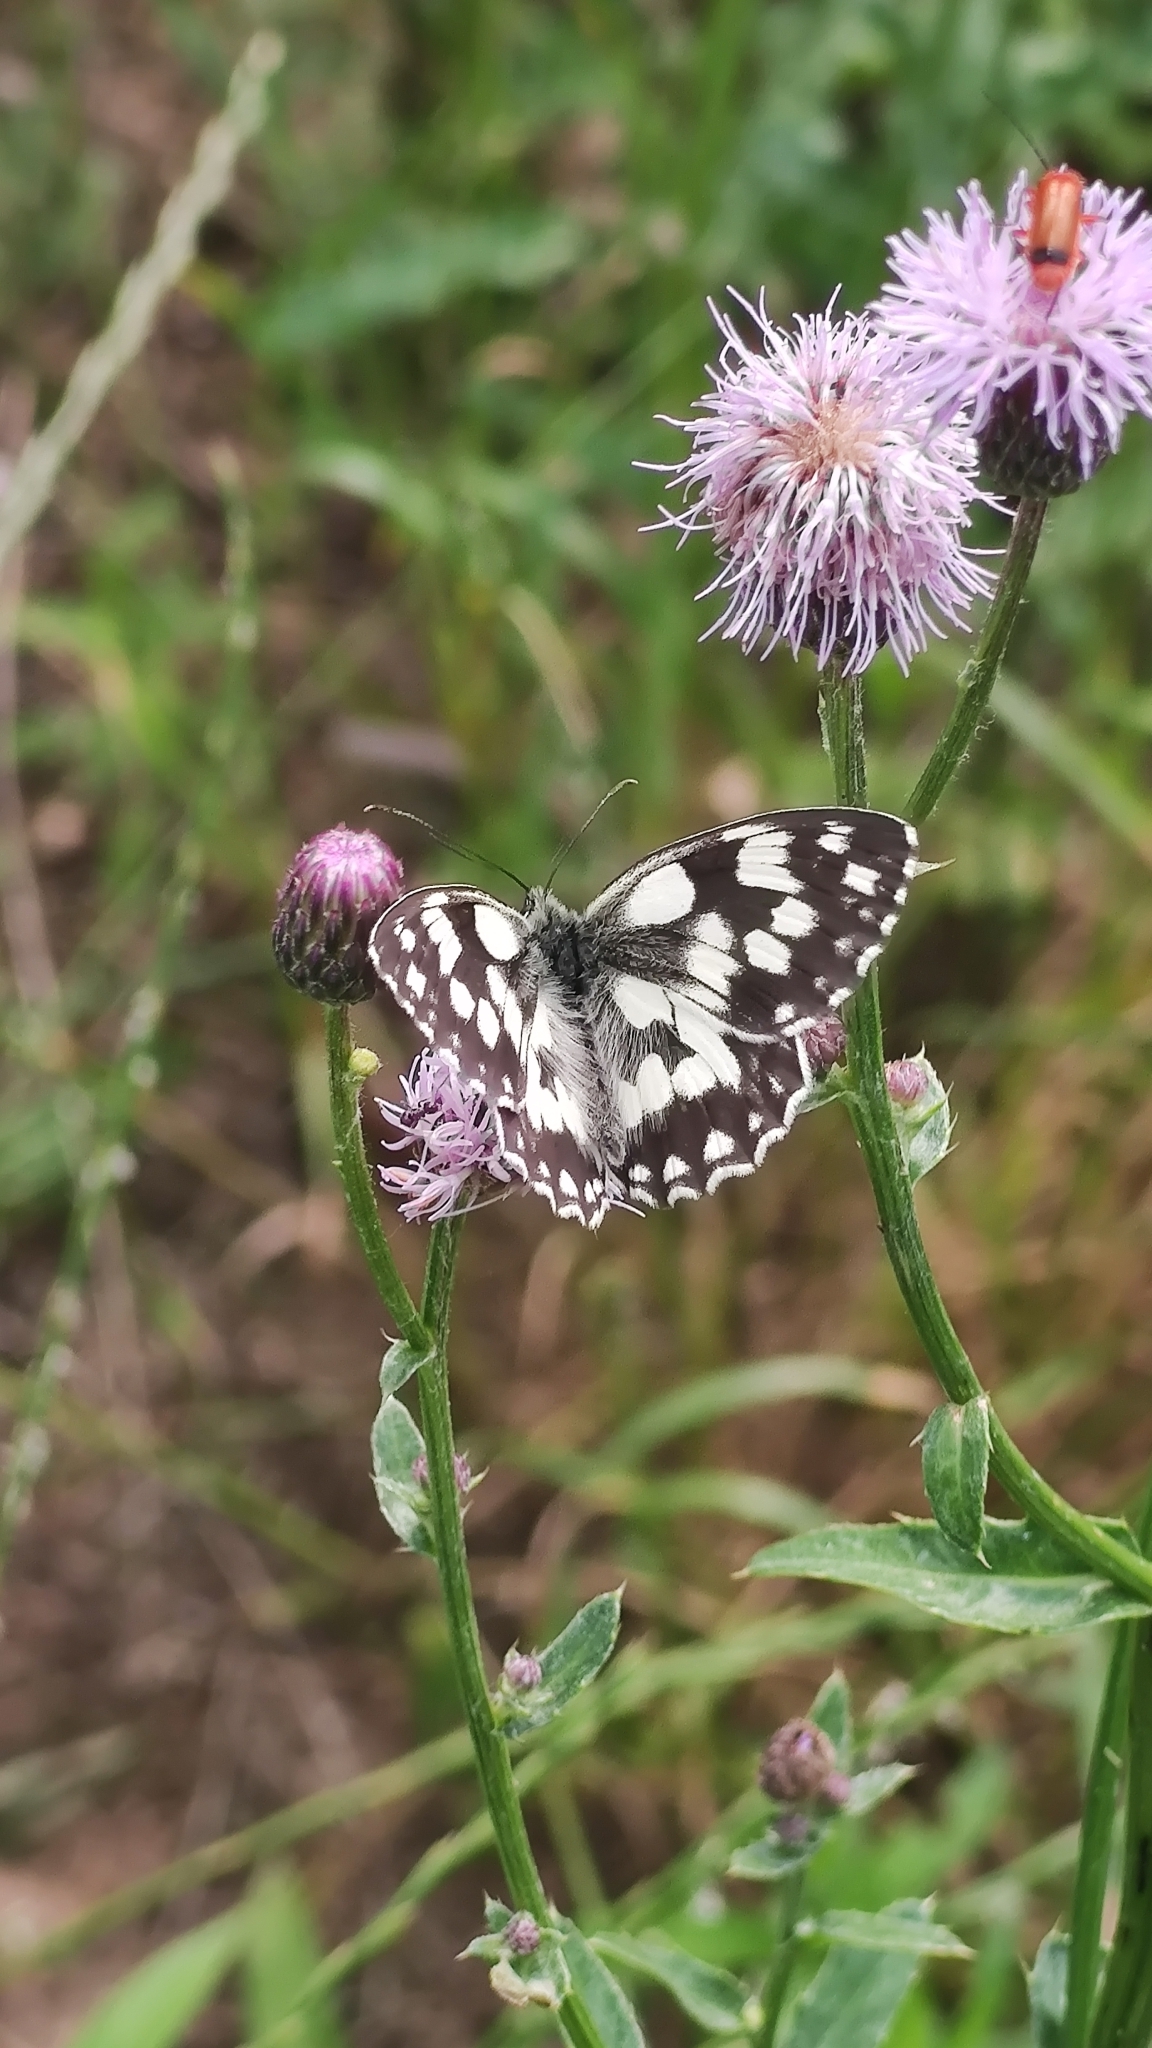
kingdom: Animalia
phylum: Arthropoda
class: Insecta
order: Lepidoptera
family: Nymphalidae
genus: Melanargia
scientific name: Melanargia galathea
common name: Marbled white
